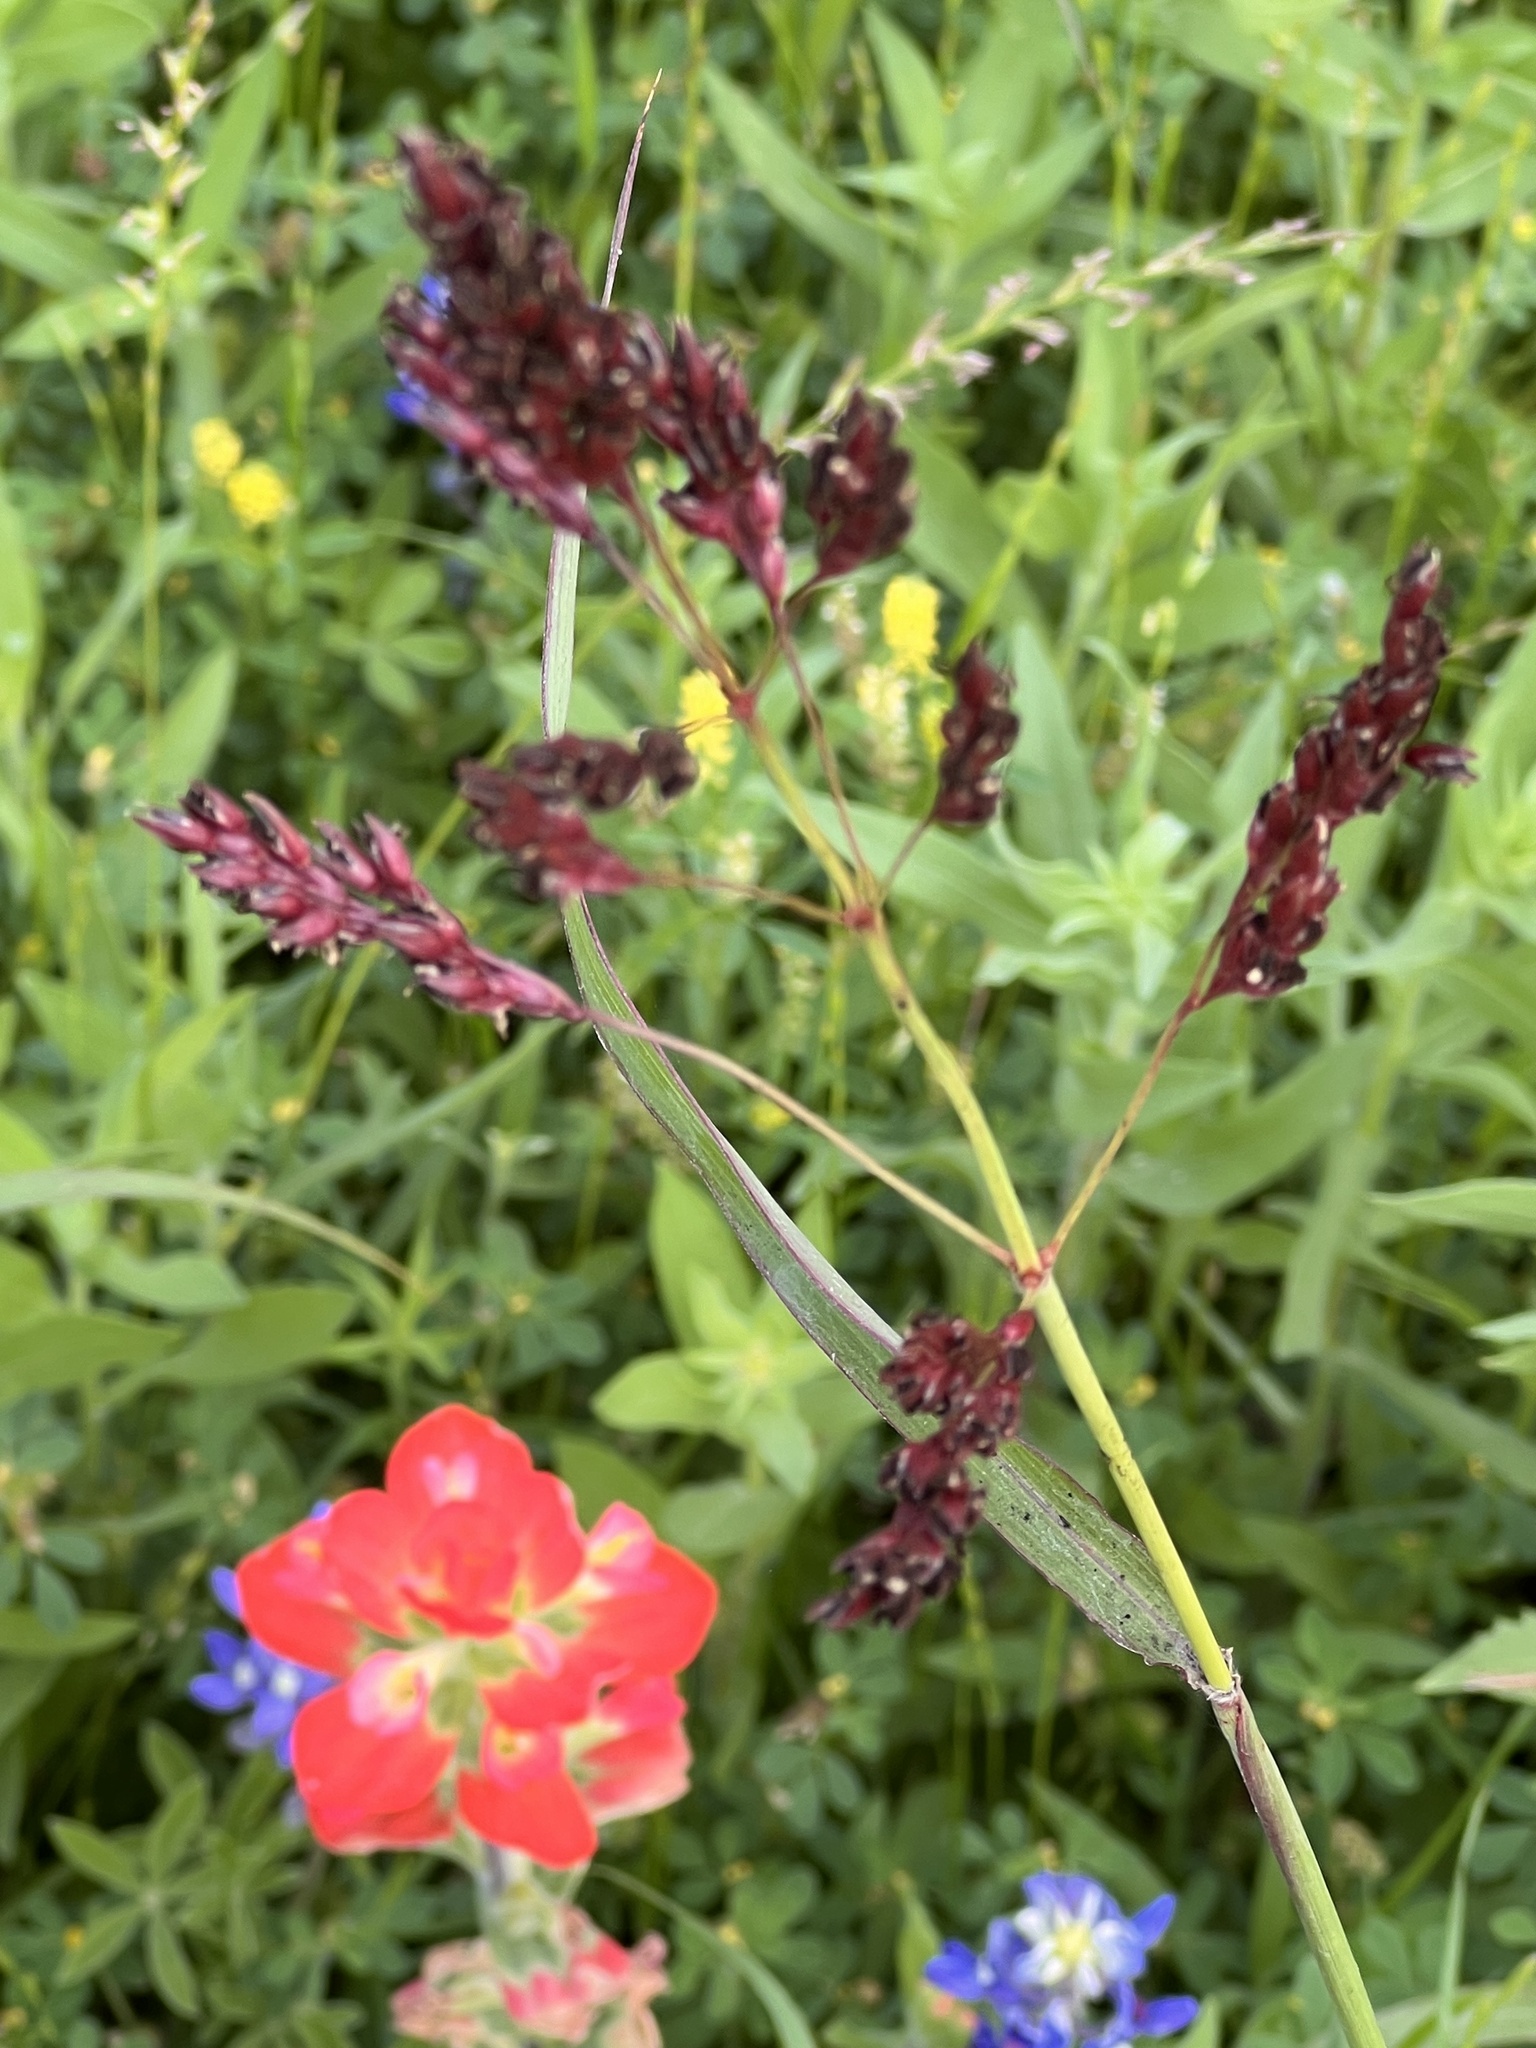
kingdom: Plantae
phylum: Tracheophyta
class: Liliopsida
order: Poales
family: Poaceae
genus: Sorghum
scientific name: Sorghum halepense
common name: Johnson-grass
